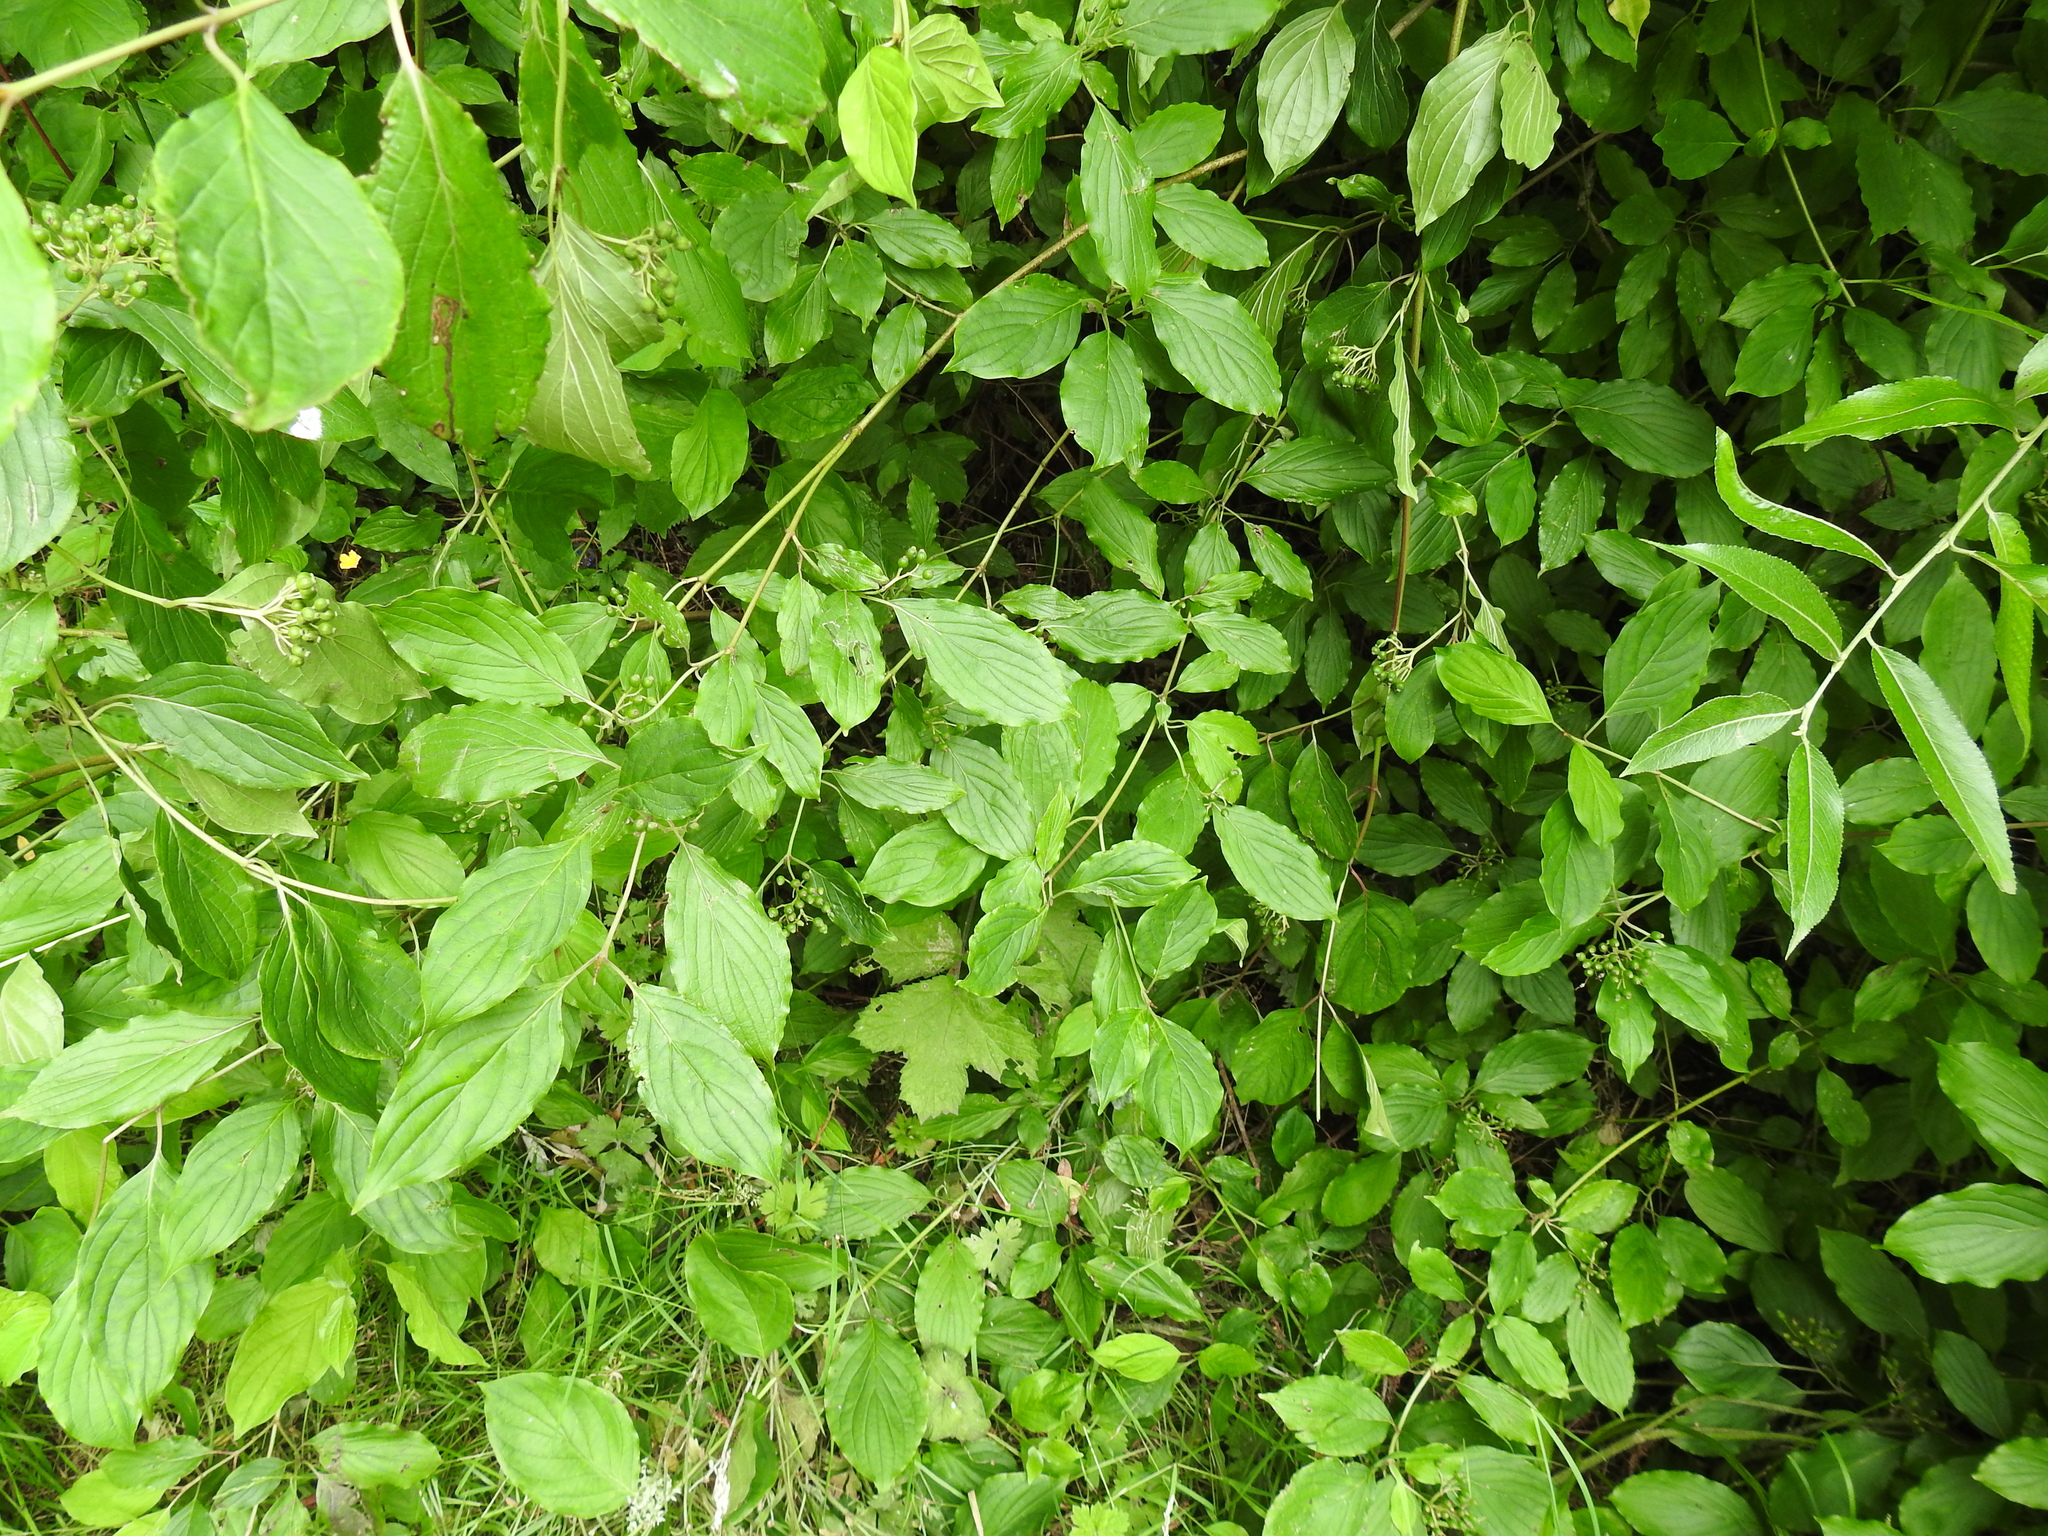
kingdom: Plantae
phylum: Tracheophyta
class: Magnoliopsida
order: Cornales
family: Cornaceae
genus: Cornus
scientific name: Cornus sanguinea
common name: Dogwood
